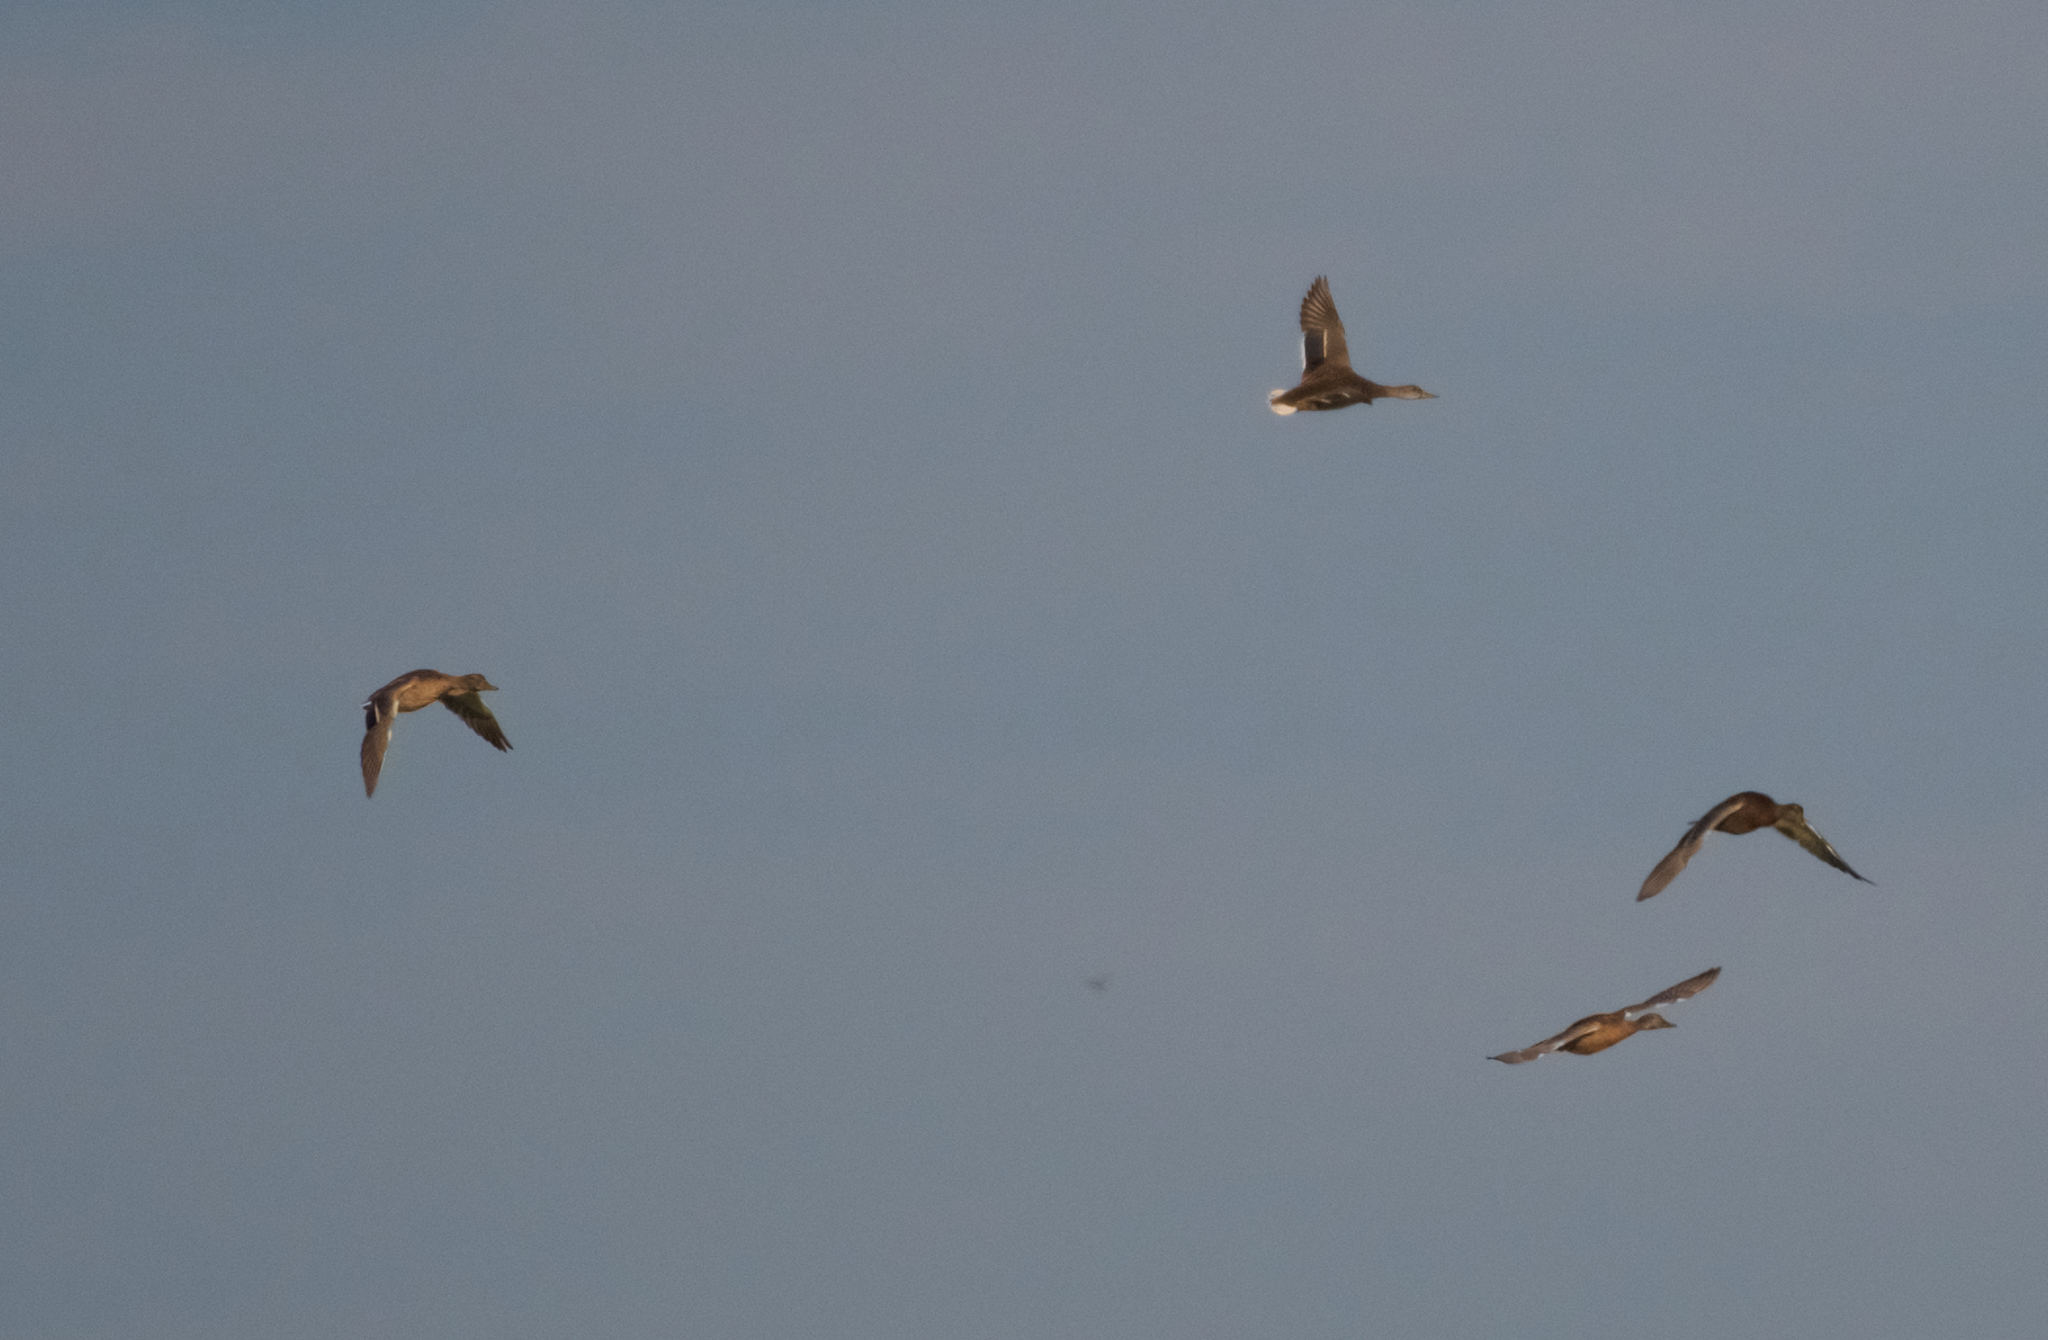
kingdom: Animalia
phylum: Chordata
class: Aves
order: Anseriformes
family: Anatidae
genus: Anas
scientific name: Anas platyrhynchos
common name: Mallard
